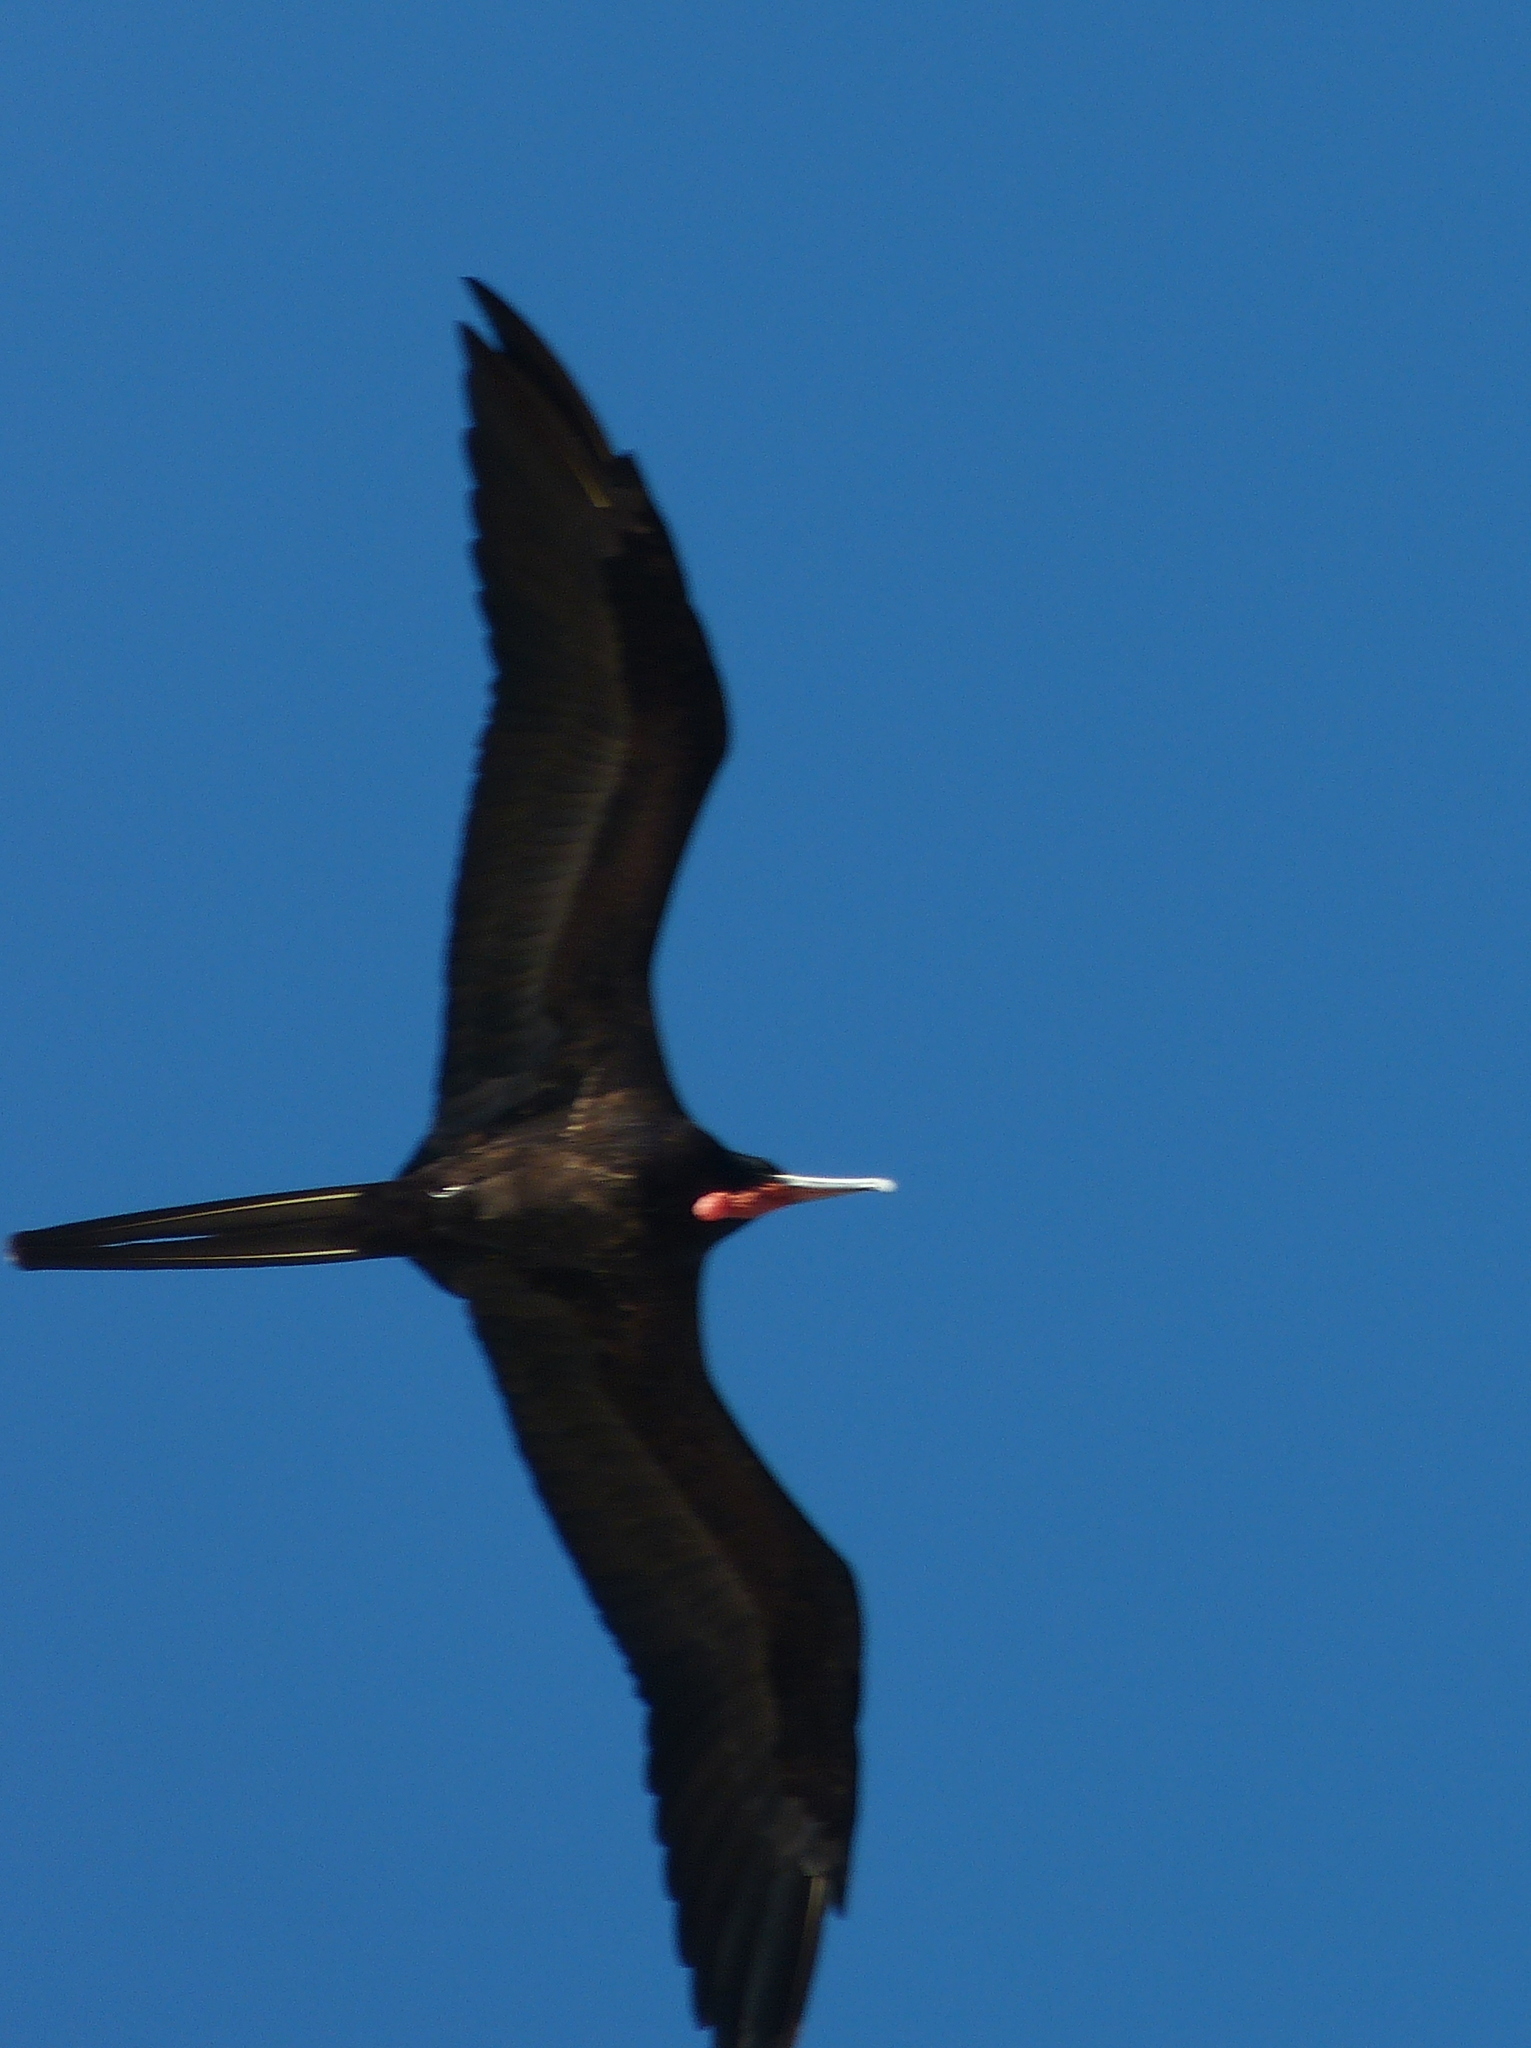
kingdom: Animalia
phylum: Chordata
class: Aves
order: Suliformes
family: Fregatidae
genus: Fregata
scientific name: Fregata magnificens
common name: Magnificent frigatebird
